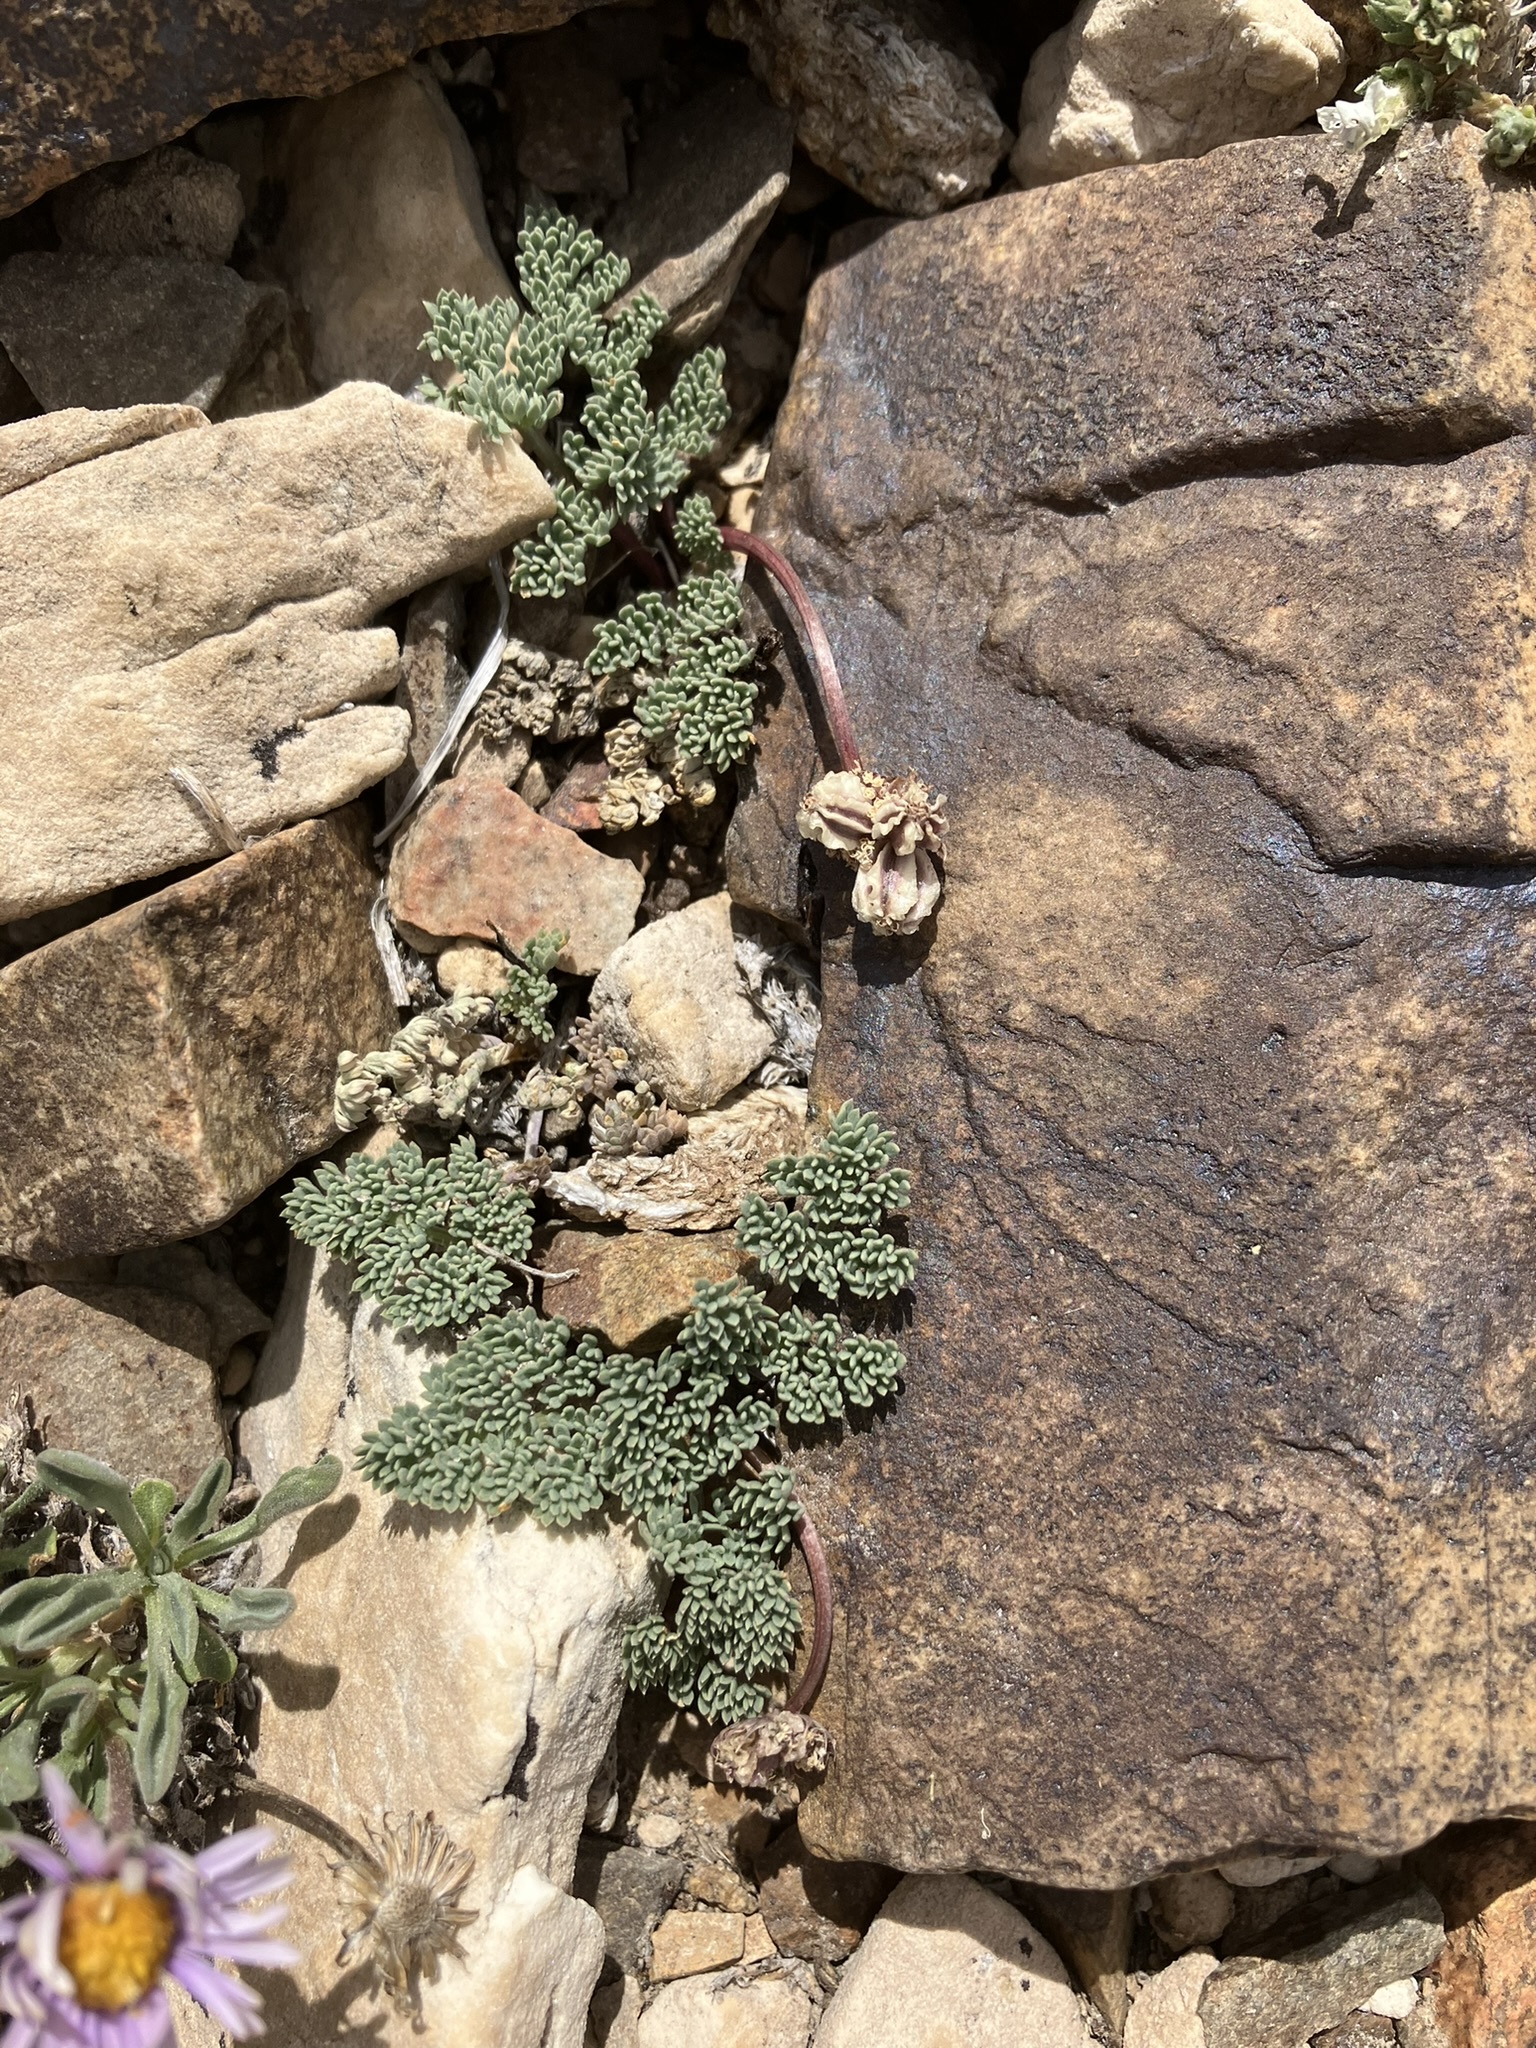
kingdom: Plantae
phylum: Tracheophyta
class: Magnoliopsida
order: Apiales
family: Apiaceae
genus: Aulospermum
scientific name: Aulospermum cinerarium
